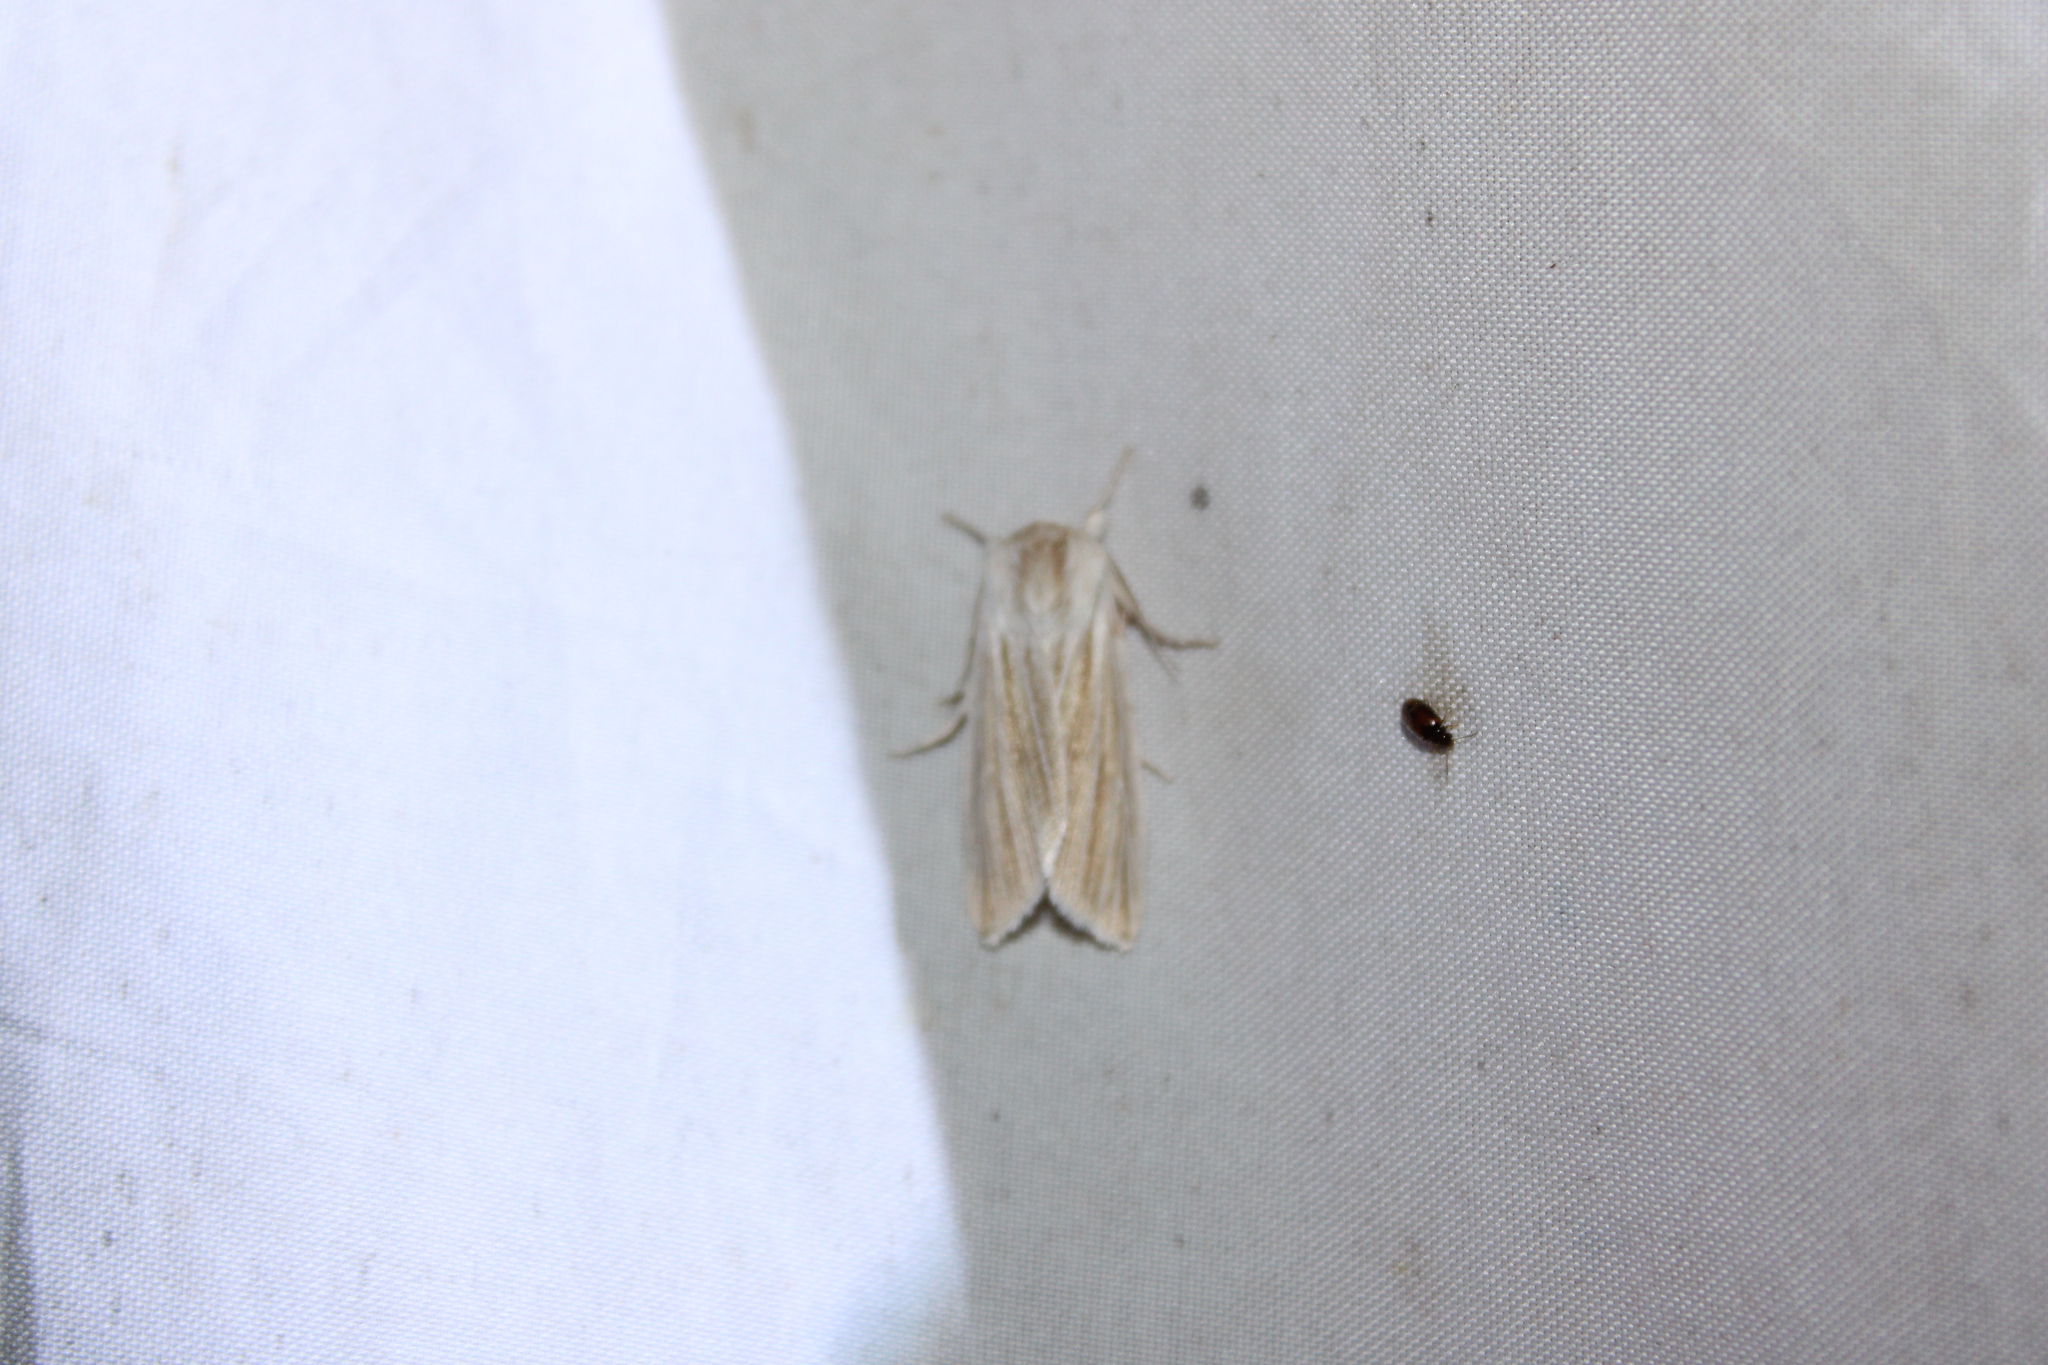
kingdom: Animalia
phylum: Arthropoda
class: Insecta
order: Lepidoptera
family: Noctuidae
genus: Acronicta
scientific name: Acronicta insularis
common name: Henry's marsh moth
